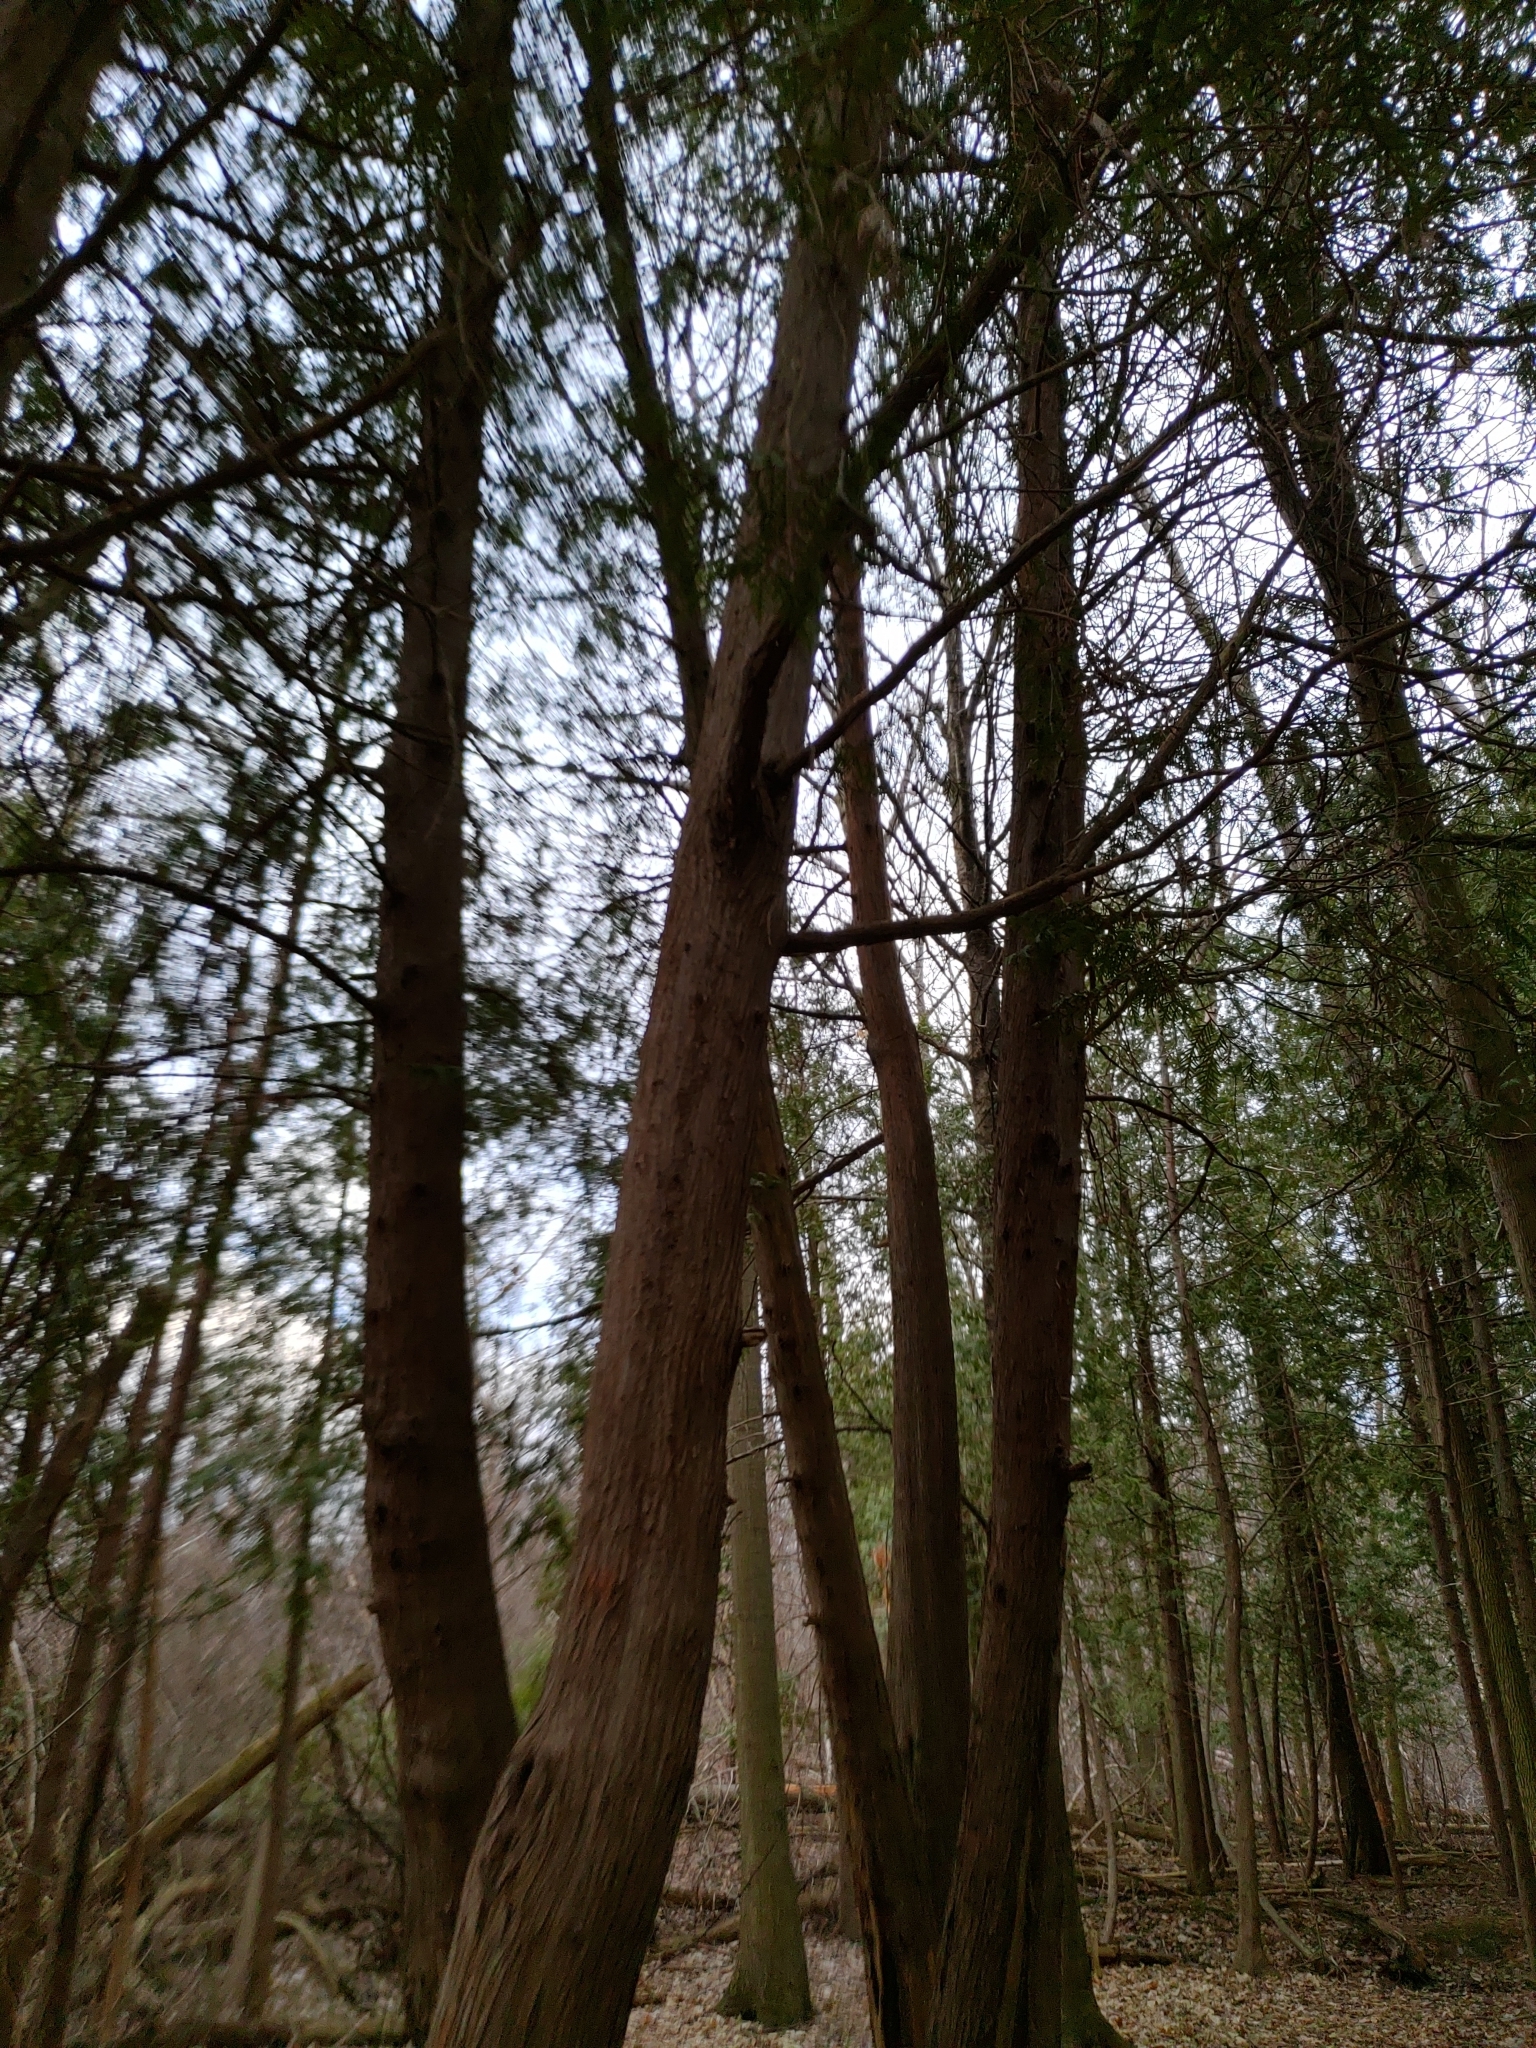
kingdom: Plantae
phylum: Tracheophyta
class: Pinopsida
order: Pinales
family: Cupressaceae
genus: Thuja
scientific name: Thuja occidentalis
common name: Northern white-cedar
